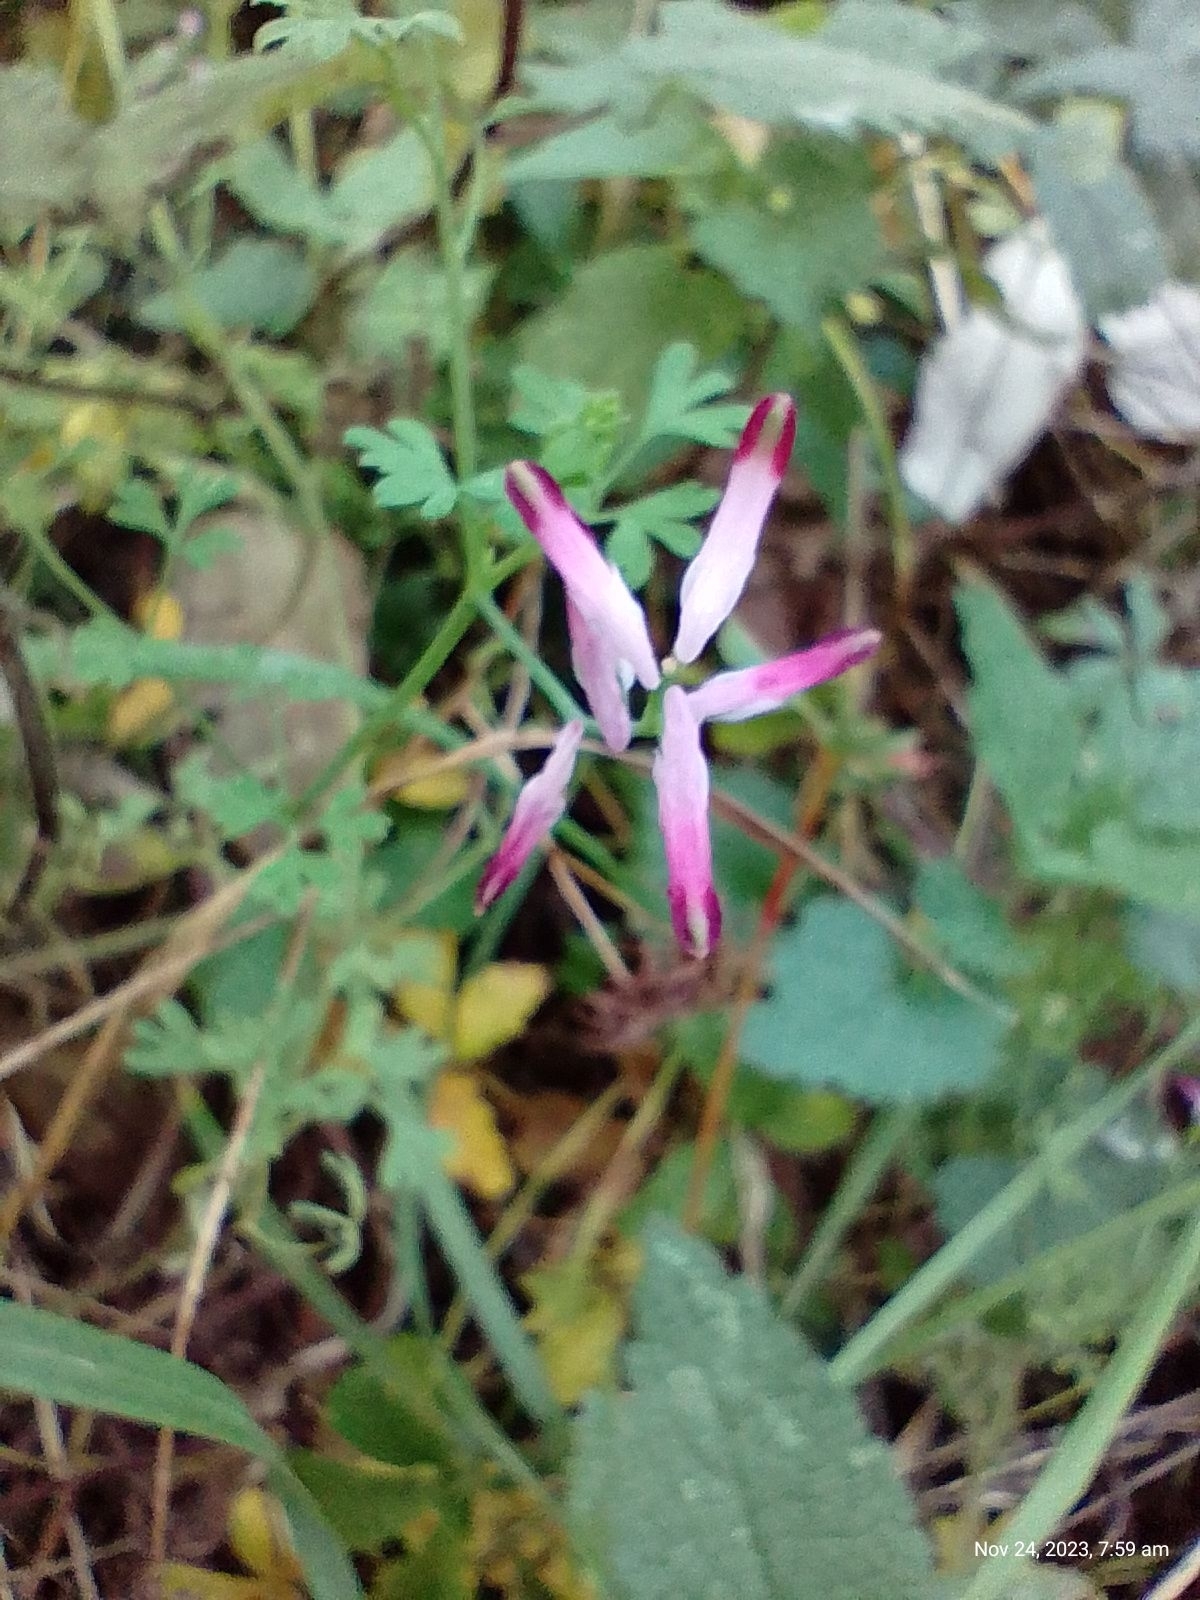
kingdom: Plantae
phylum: Tracheophyta
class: Magnoliopsida
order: Ranunculales
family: Papaveraceae
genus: Fumaria
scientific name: Fumaria muralis
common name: Common ramping-fumitory
